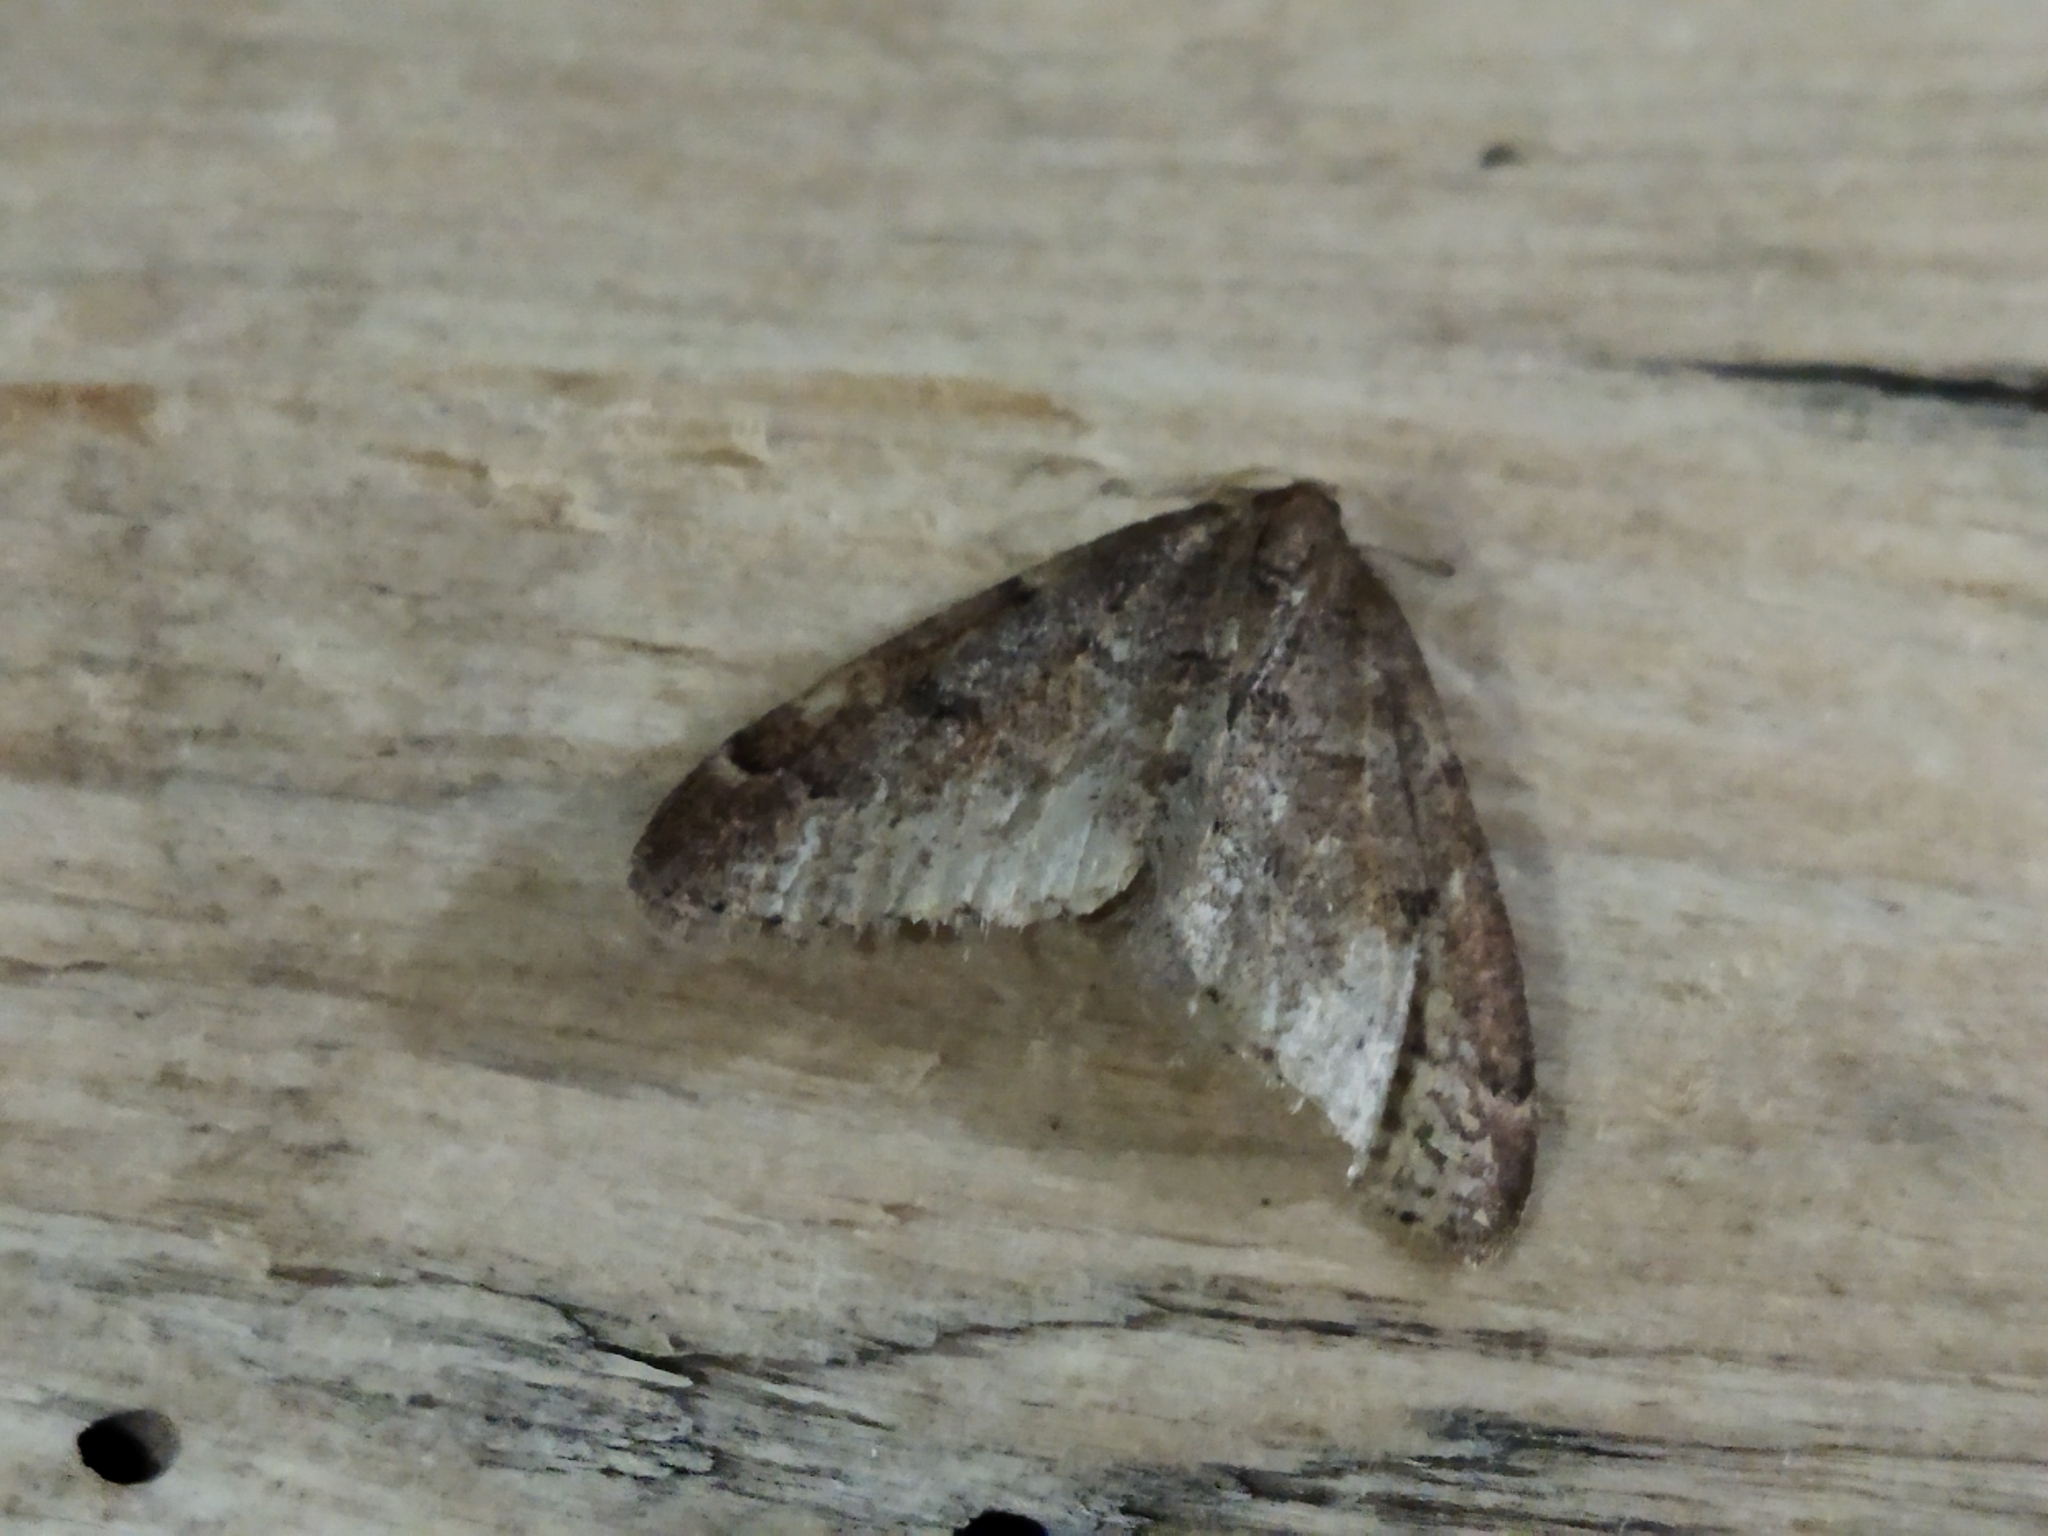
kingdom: Animalia
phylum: Arthropoda
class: Insecta
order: Lepidoptera
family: Geometridae
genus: Theria
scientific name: Theria rupicapraria
